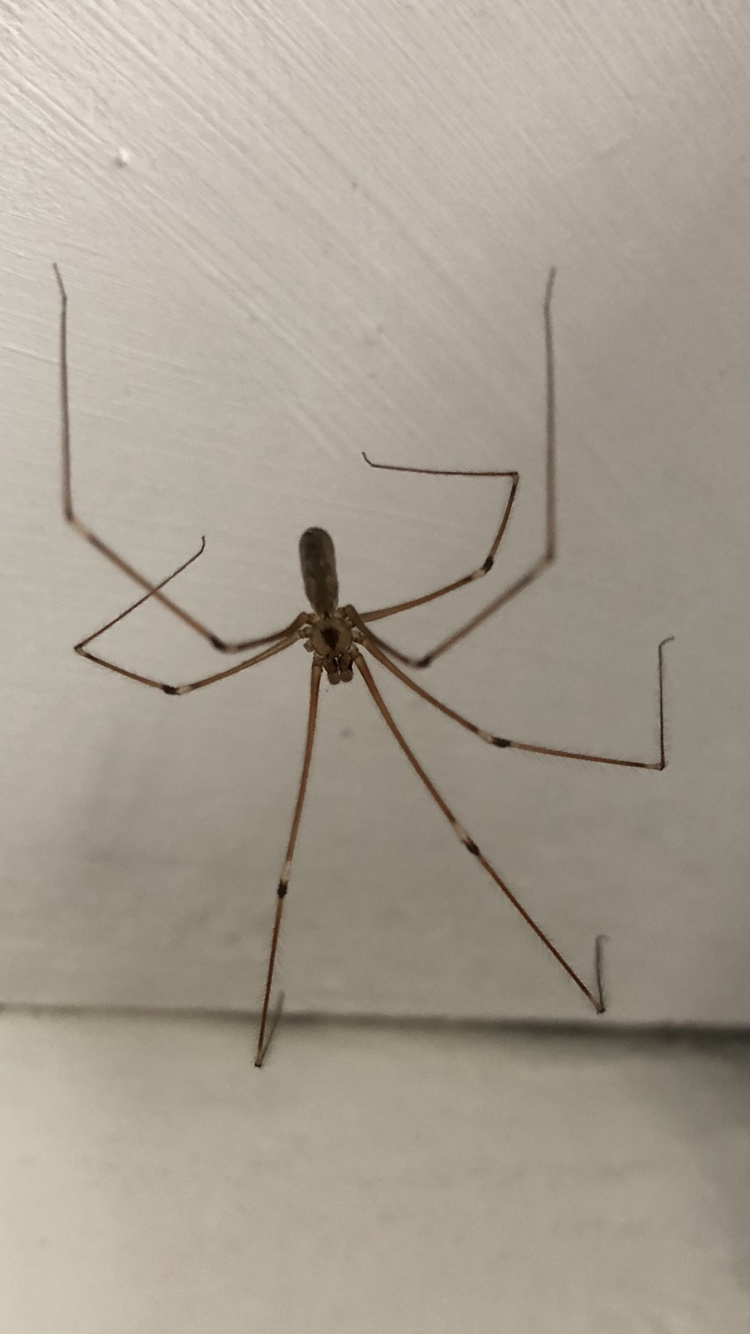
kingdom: Animalia
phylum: Arthropoda
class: Arachnida
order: Araneae
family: Pholcidae
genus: Pholcus
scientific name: Pholcus phalangioides
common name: Longbodied cellar spider
